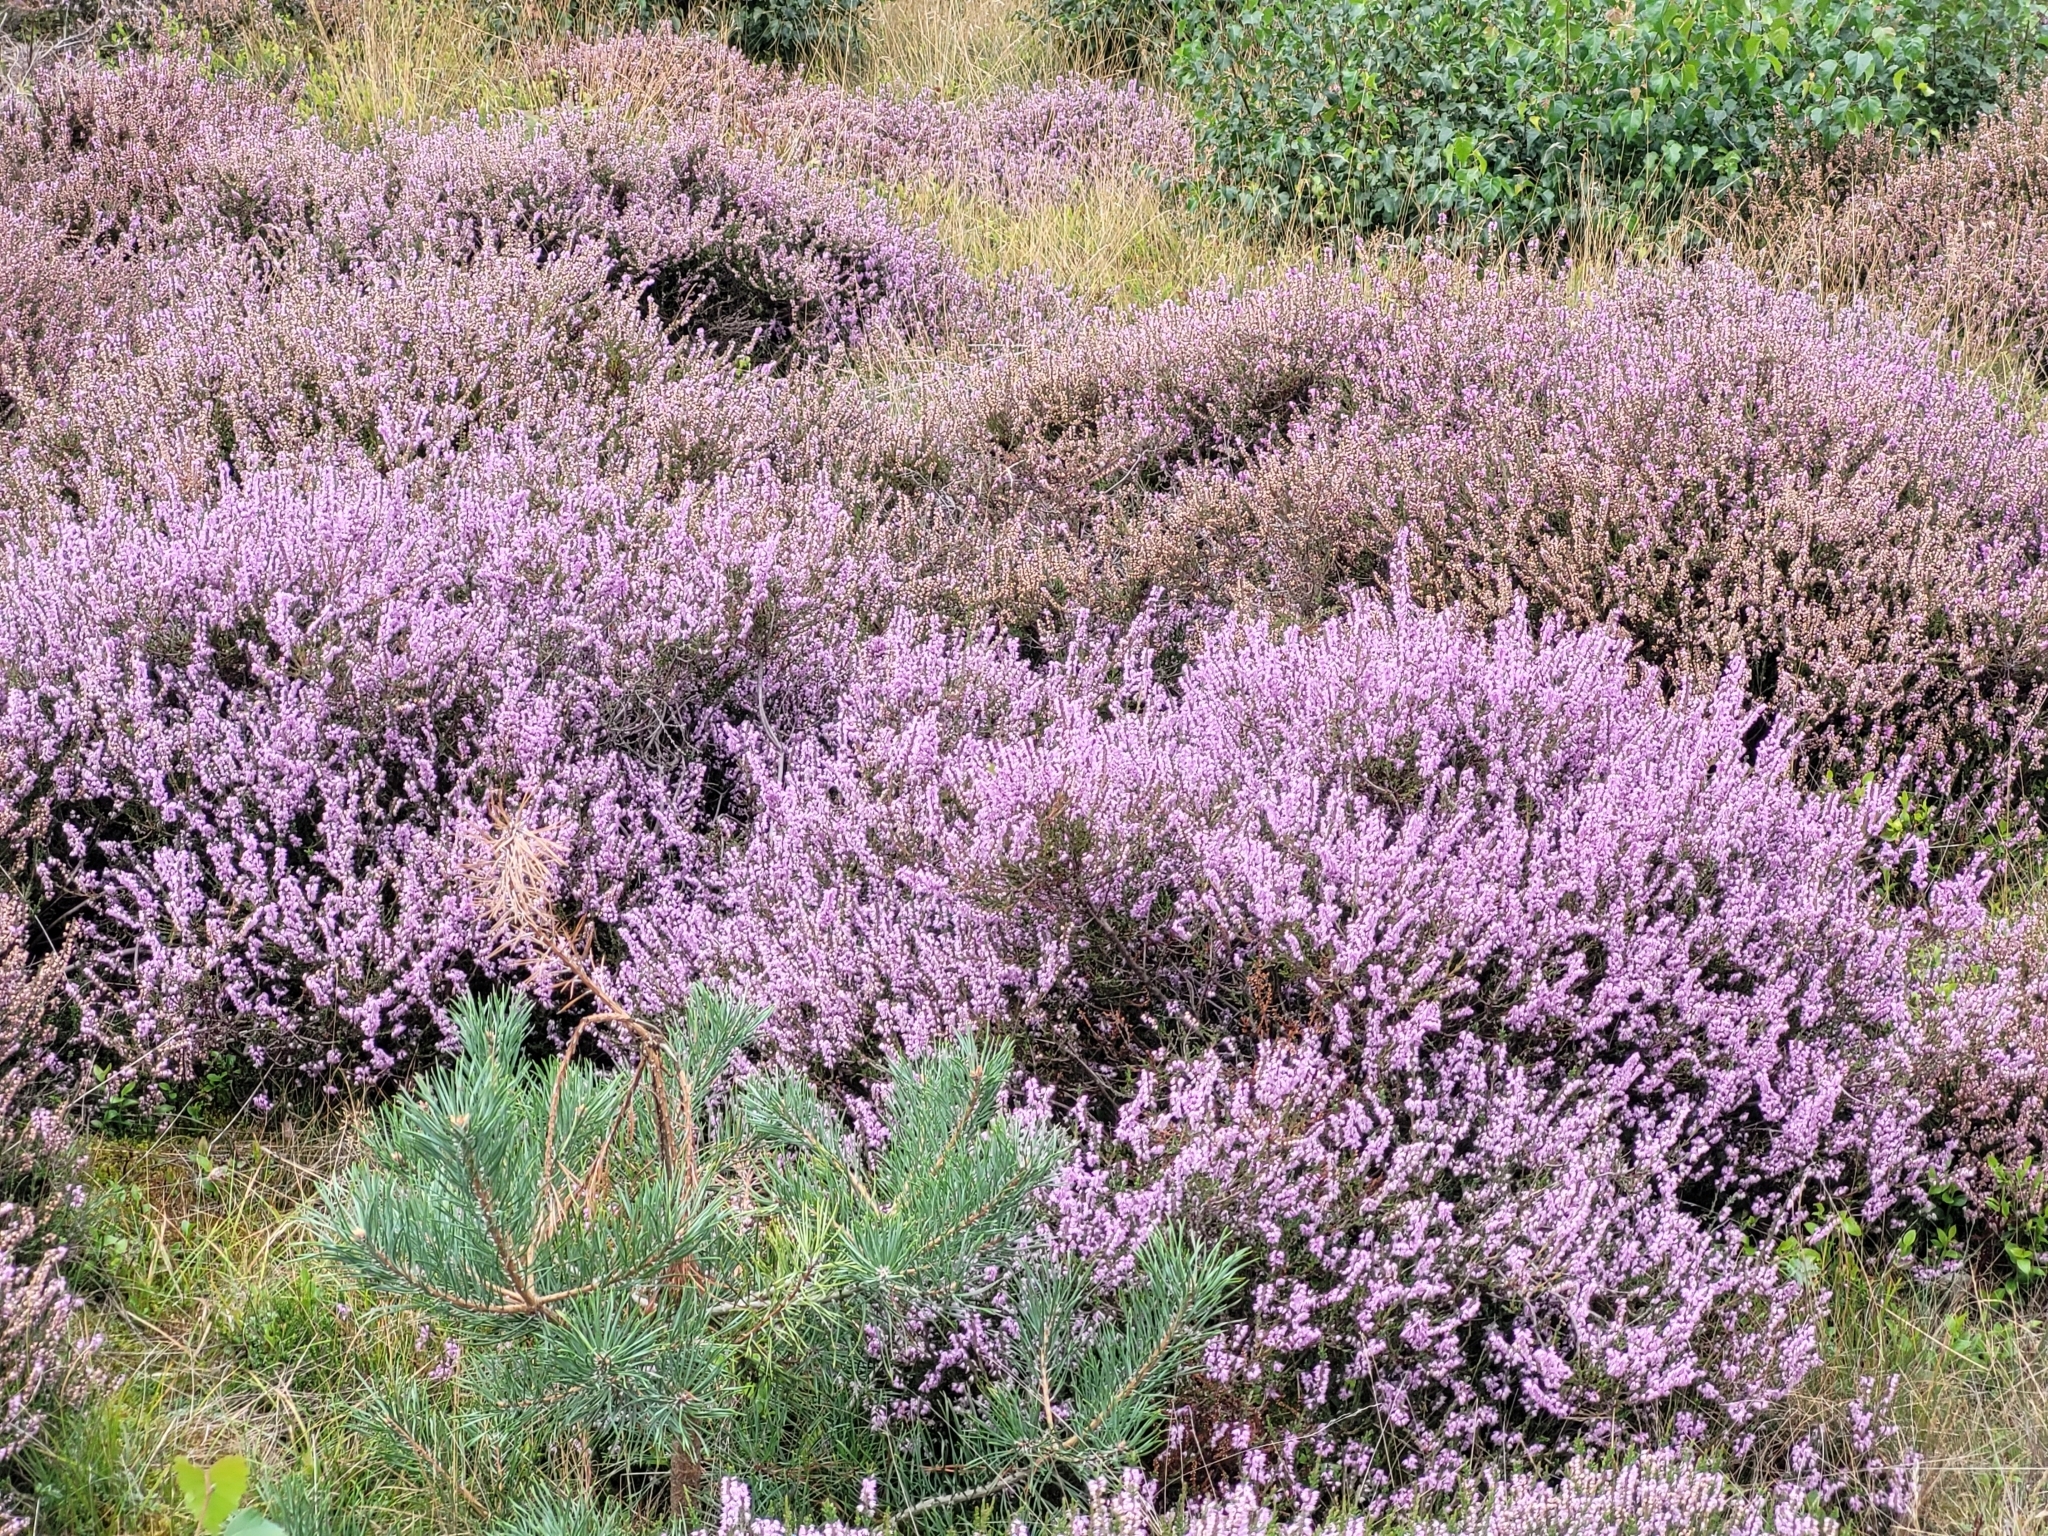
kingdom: Plantae
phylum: Tracheophyta
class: Magnoliopsida
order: Ericales
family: Ericaceae
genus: Calluna
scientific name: Calluna vulgaris
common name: Heather
